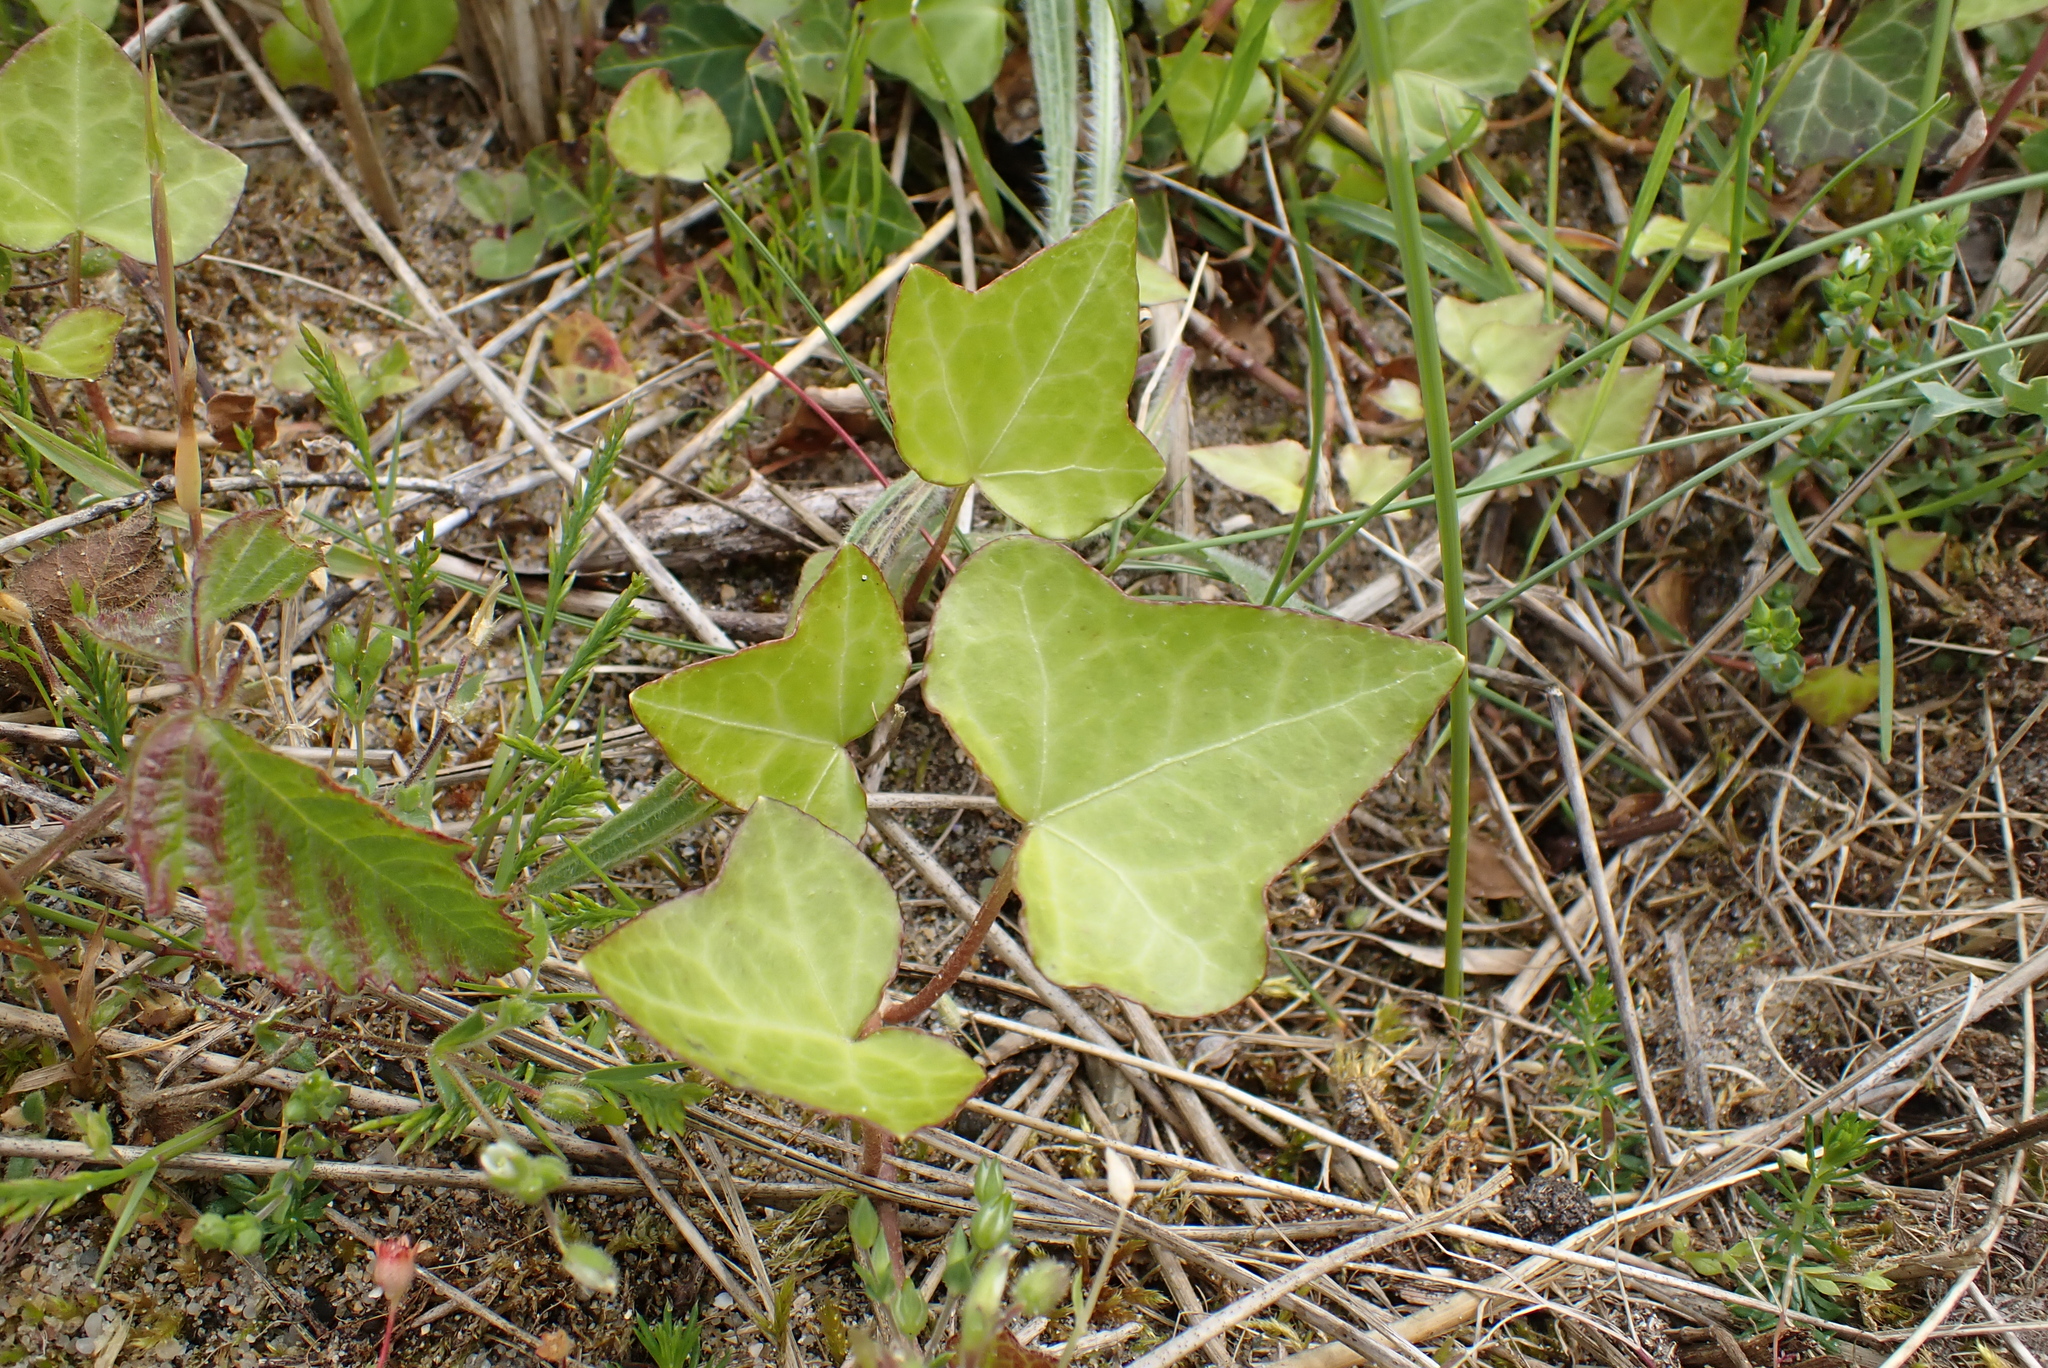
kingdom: Plantae
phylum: Tracheophyta
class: Magnoliopsida
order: Apiales
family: Araliaceae
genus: Hedera
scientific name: Hedera helix
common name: Ivy
